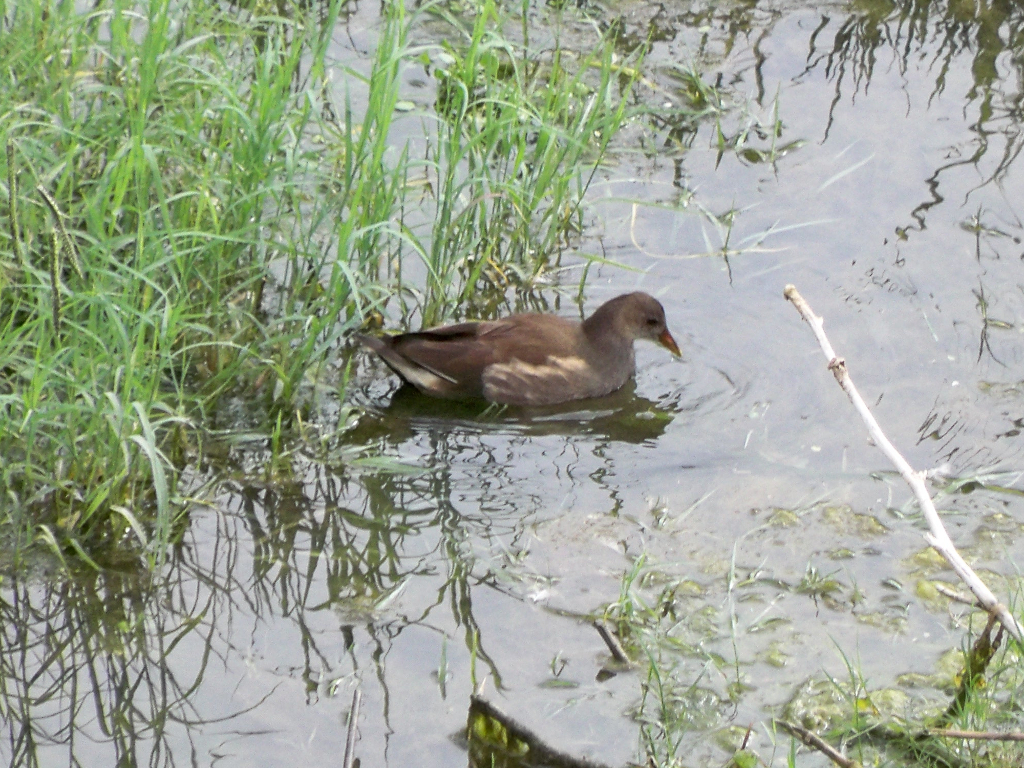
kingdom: Animalia
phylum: Chordata
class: Aves
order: Gruiformes
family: Rallidae
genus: Gallinula
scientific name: Gallinula chloropus
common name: Common moorhen
